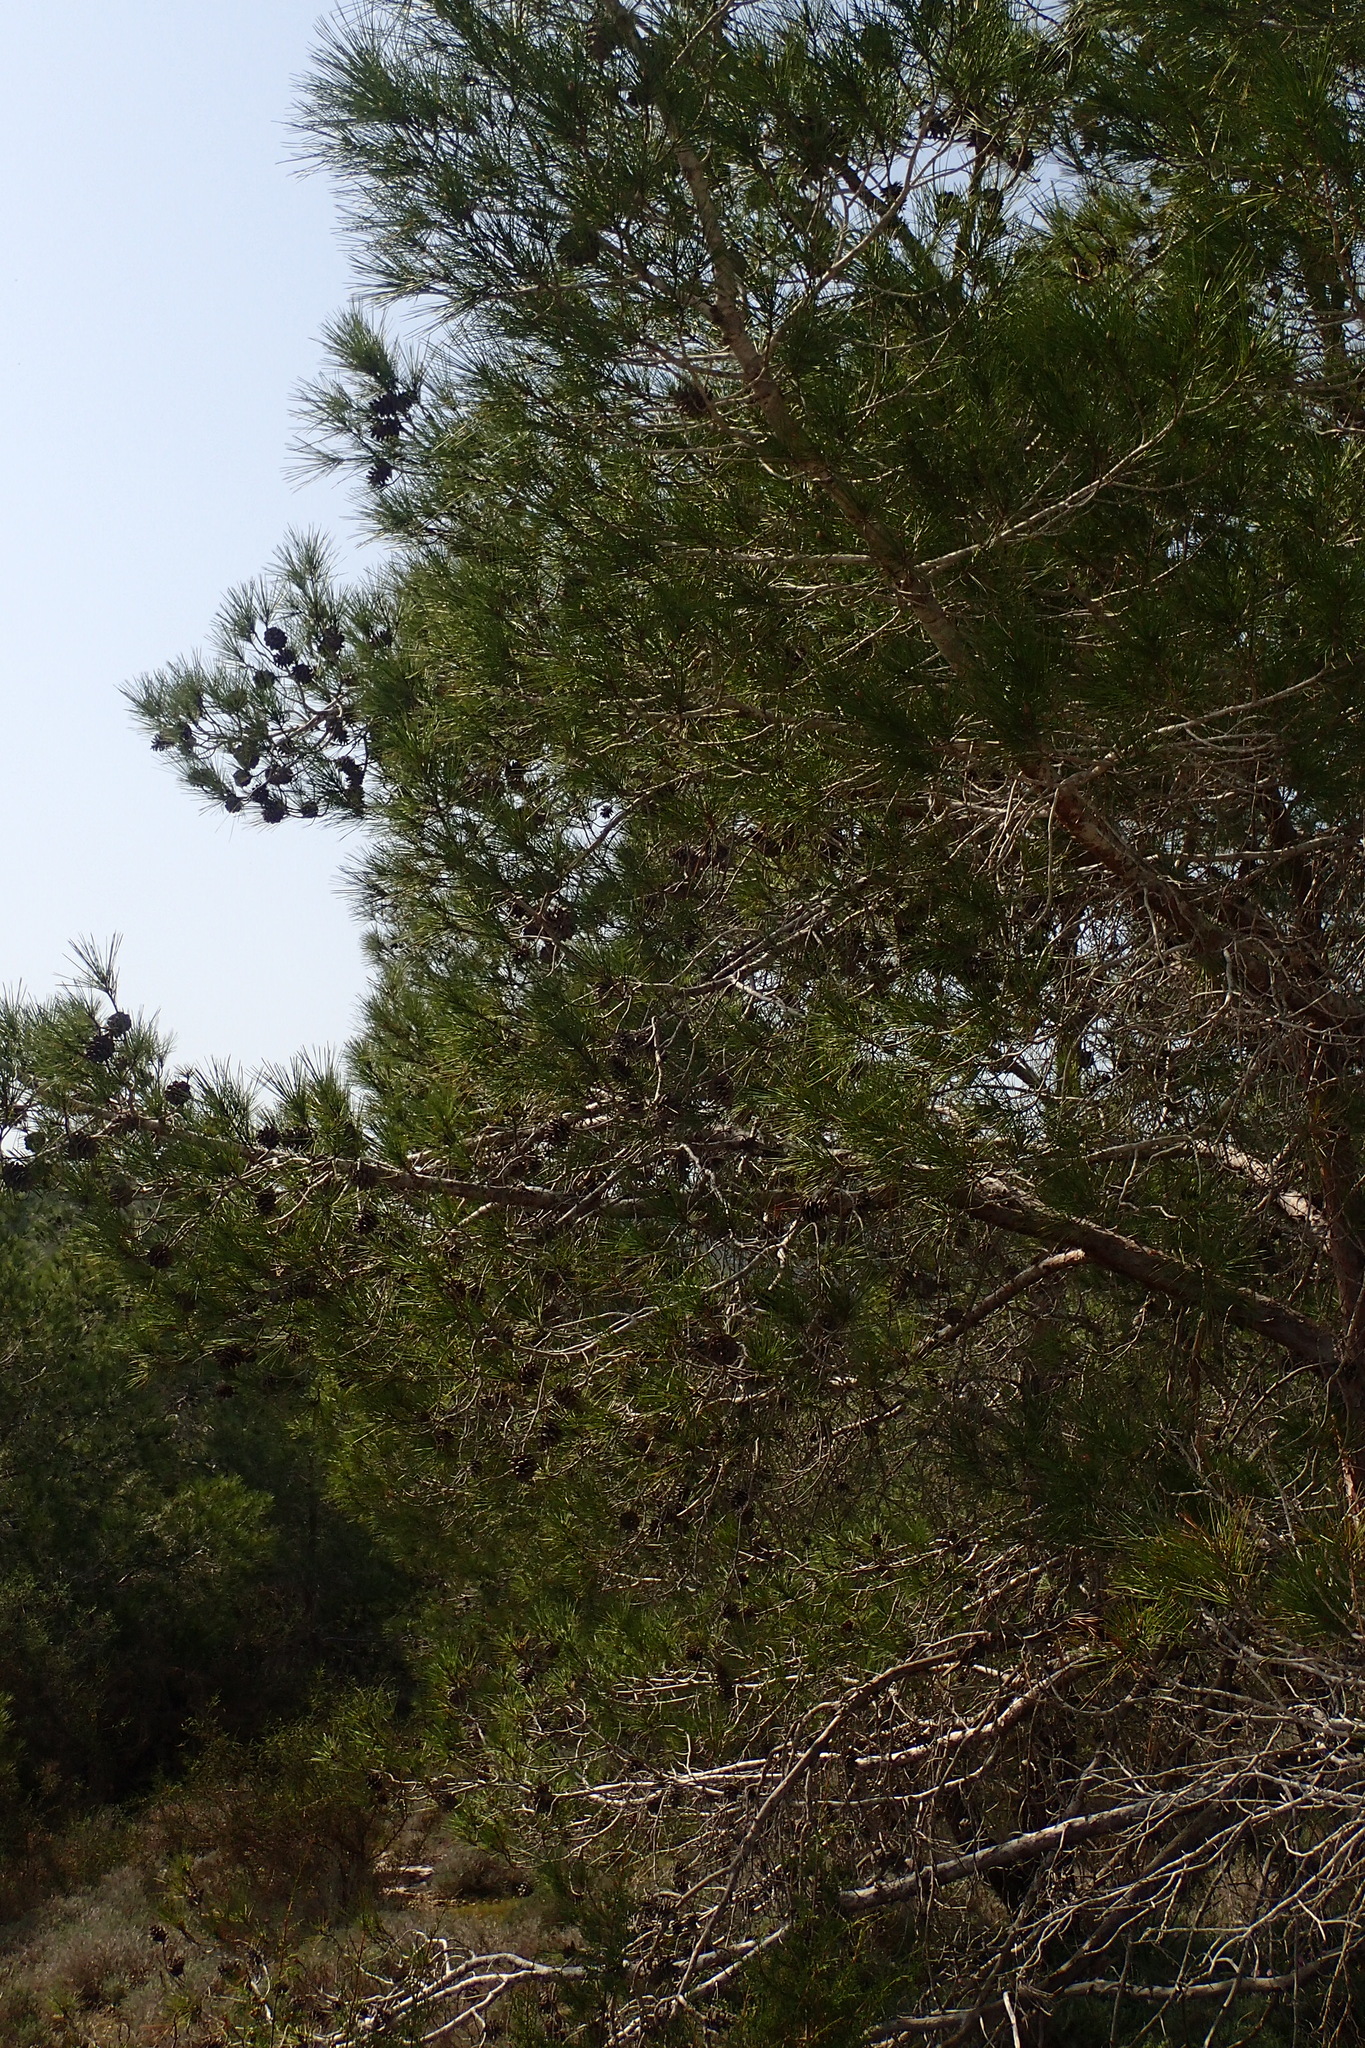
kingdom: Plantae
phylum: Tracheophyta
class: Pinopsida
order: Pinales
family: Pinaceae
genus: Pinus
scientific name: Pinus brutia
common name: Turkish pine
